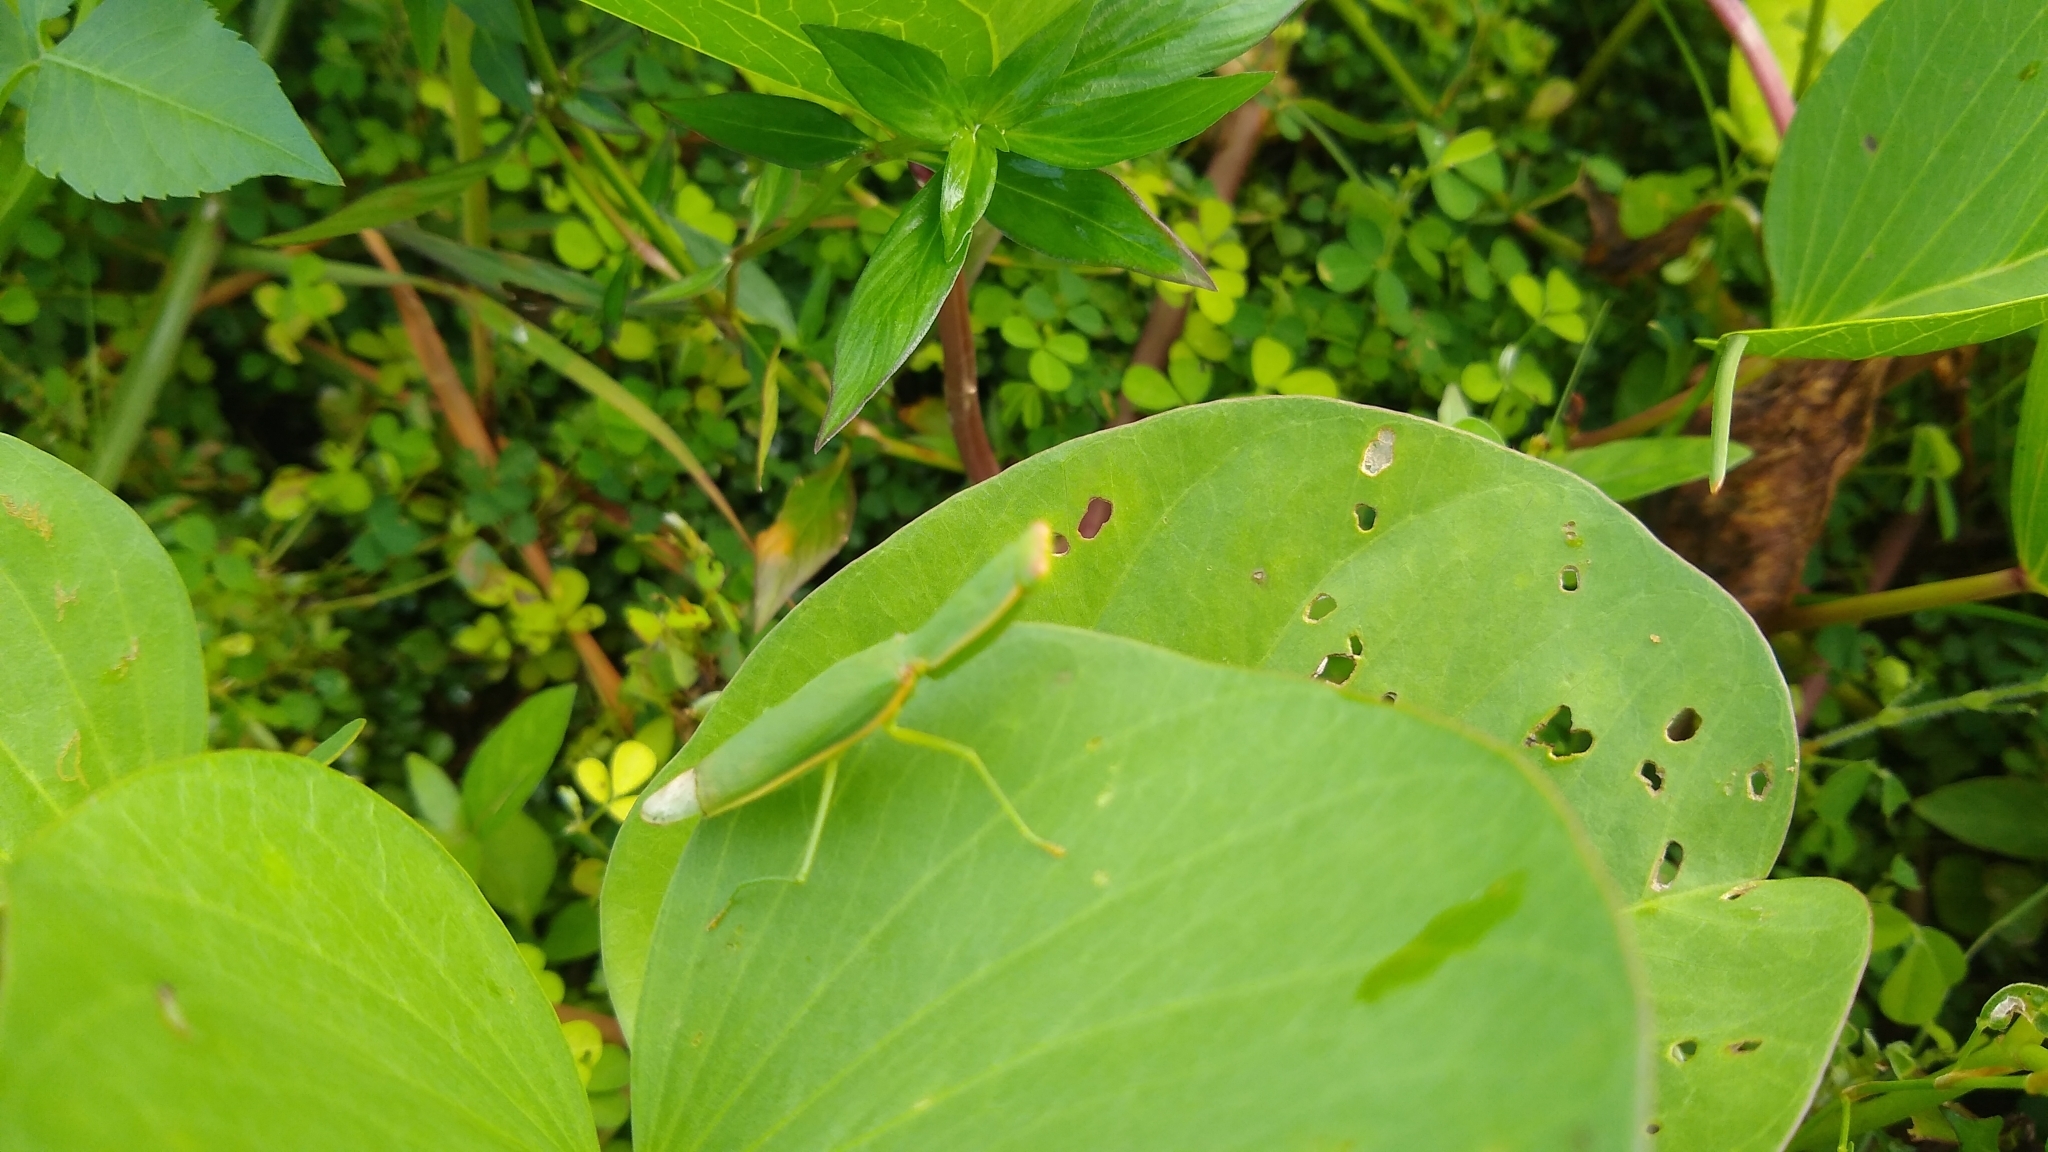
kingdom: Animalia
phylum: Arthropoda
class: Insecta
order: Mantodea
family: Mantidae
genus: Orthodera
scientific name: Orthodera burmeisteri
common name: Mantis
